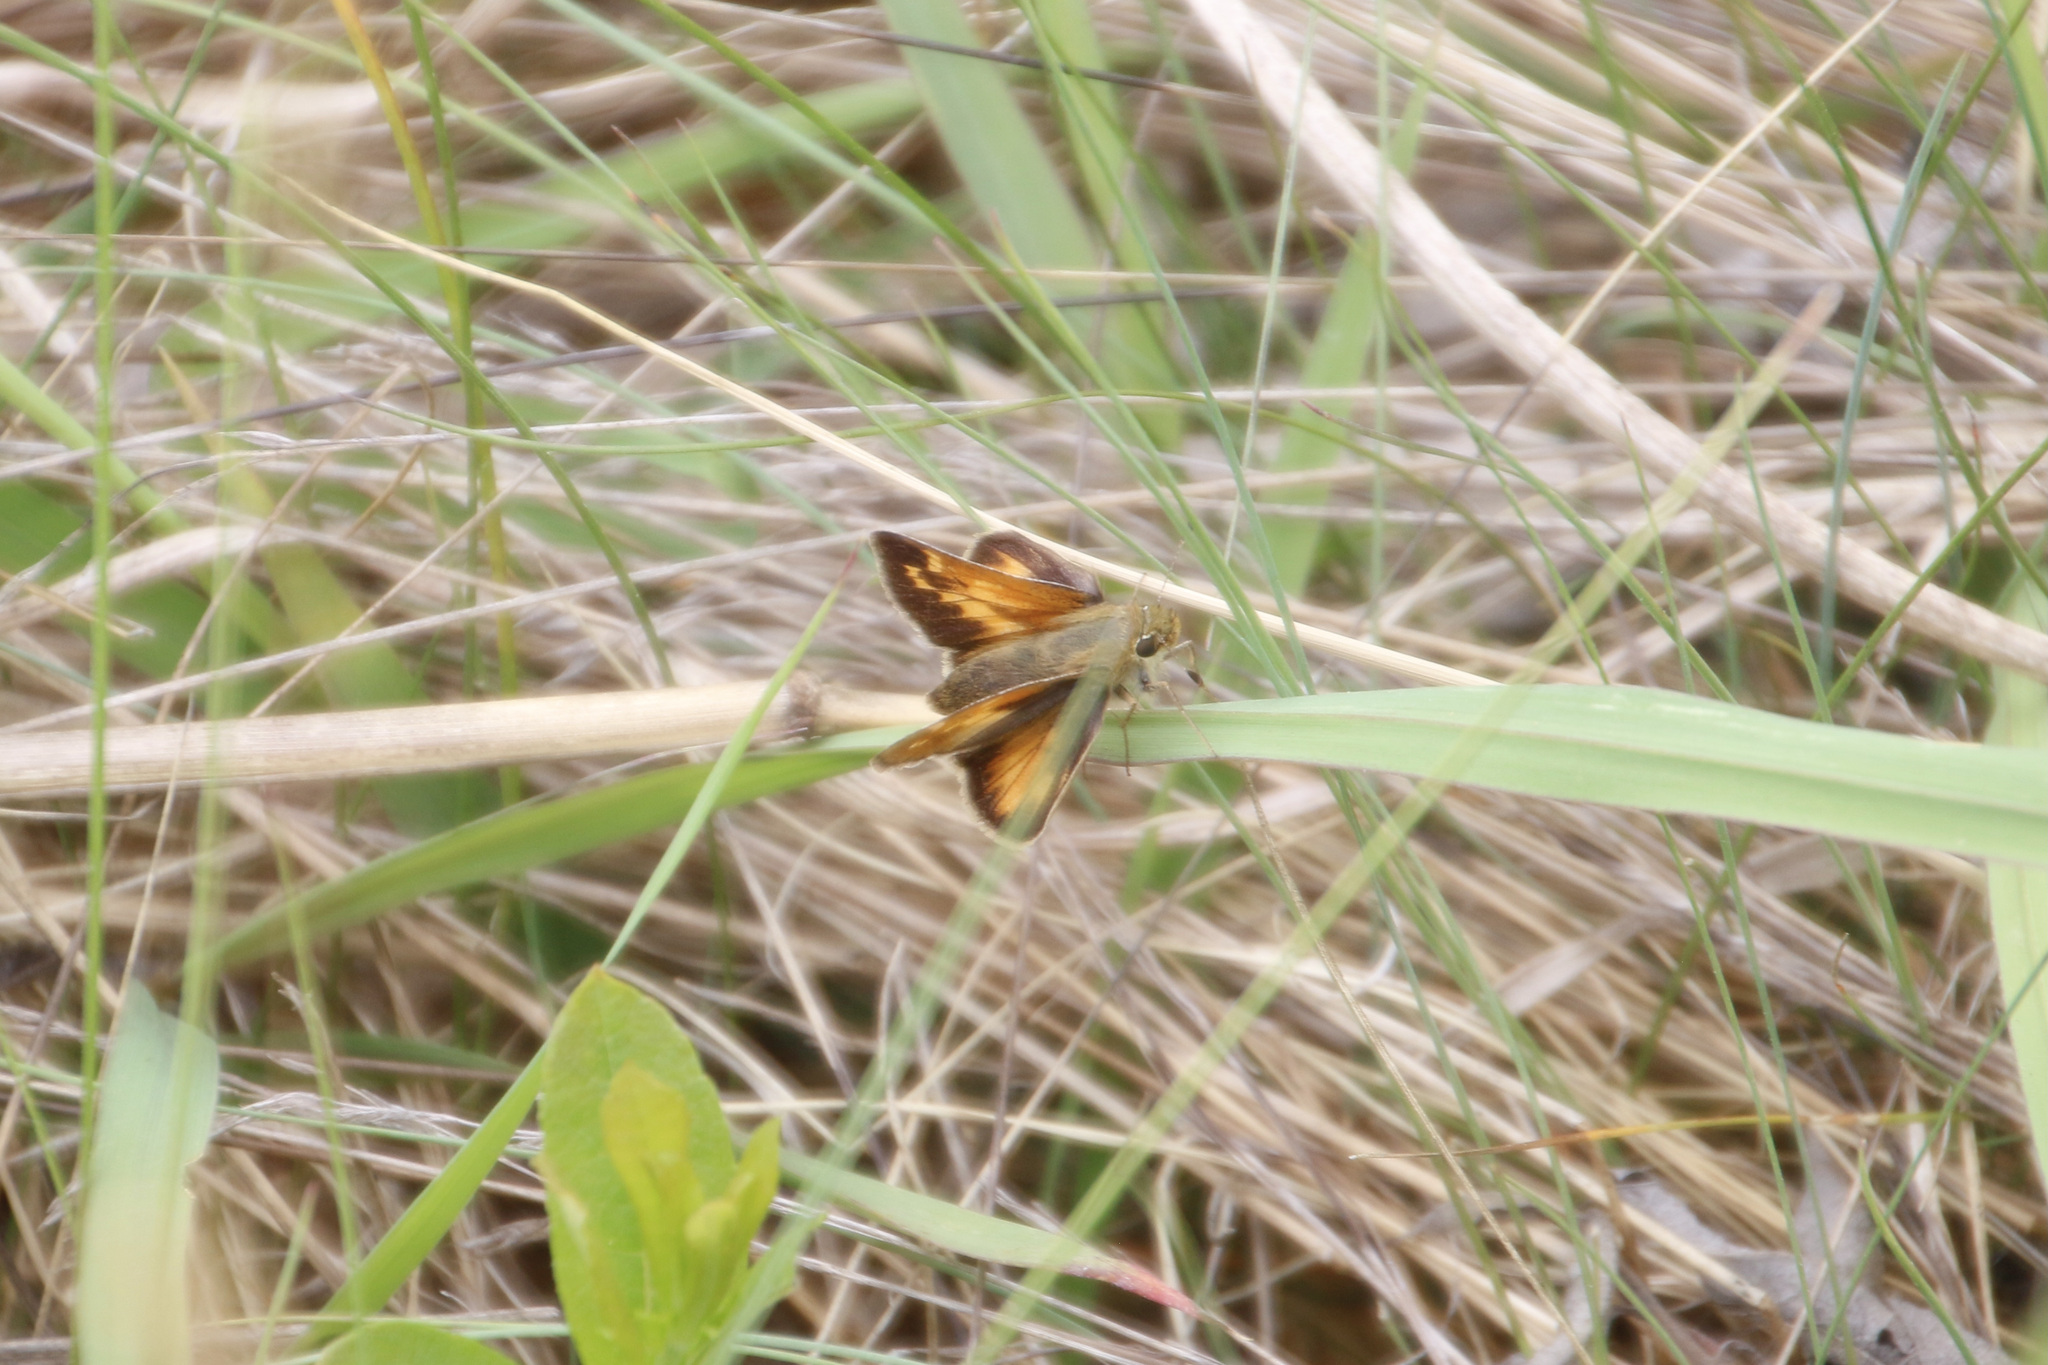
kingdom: Animalia
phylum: Arthropoda
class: Insecta
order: Lepidoptera
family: Hesperiidae
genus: Hesperia
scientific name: Hesperia sassacus
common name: Indian skipper
